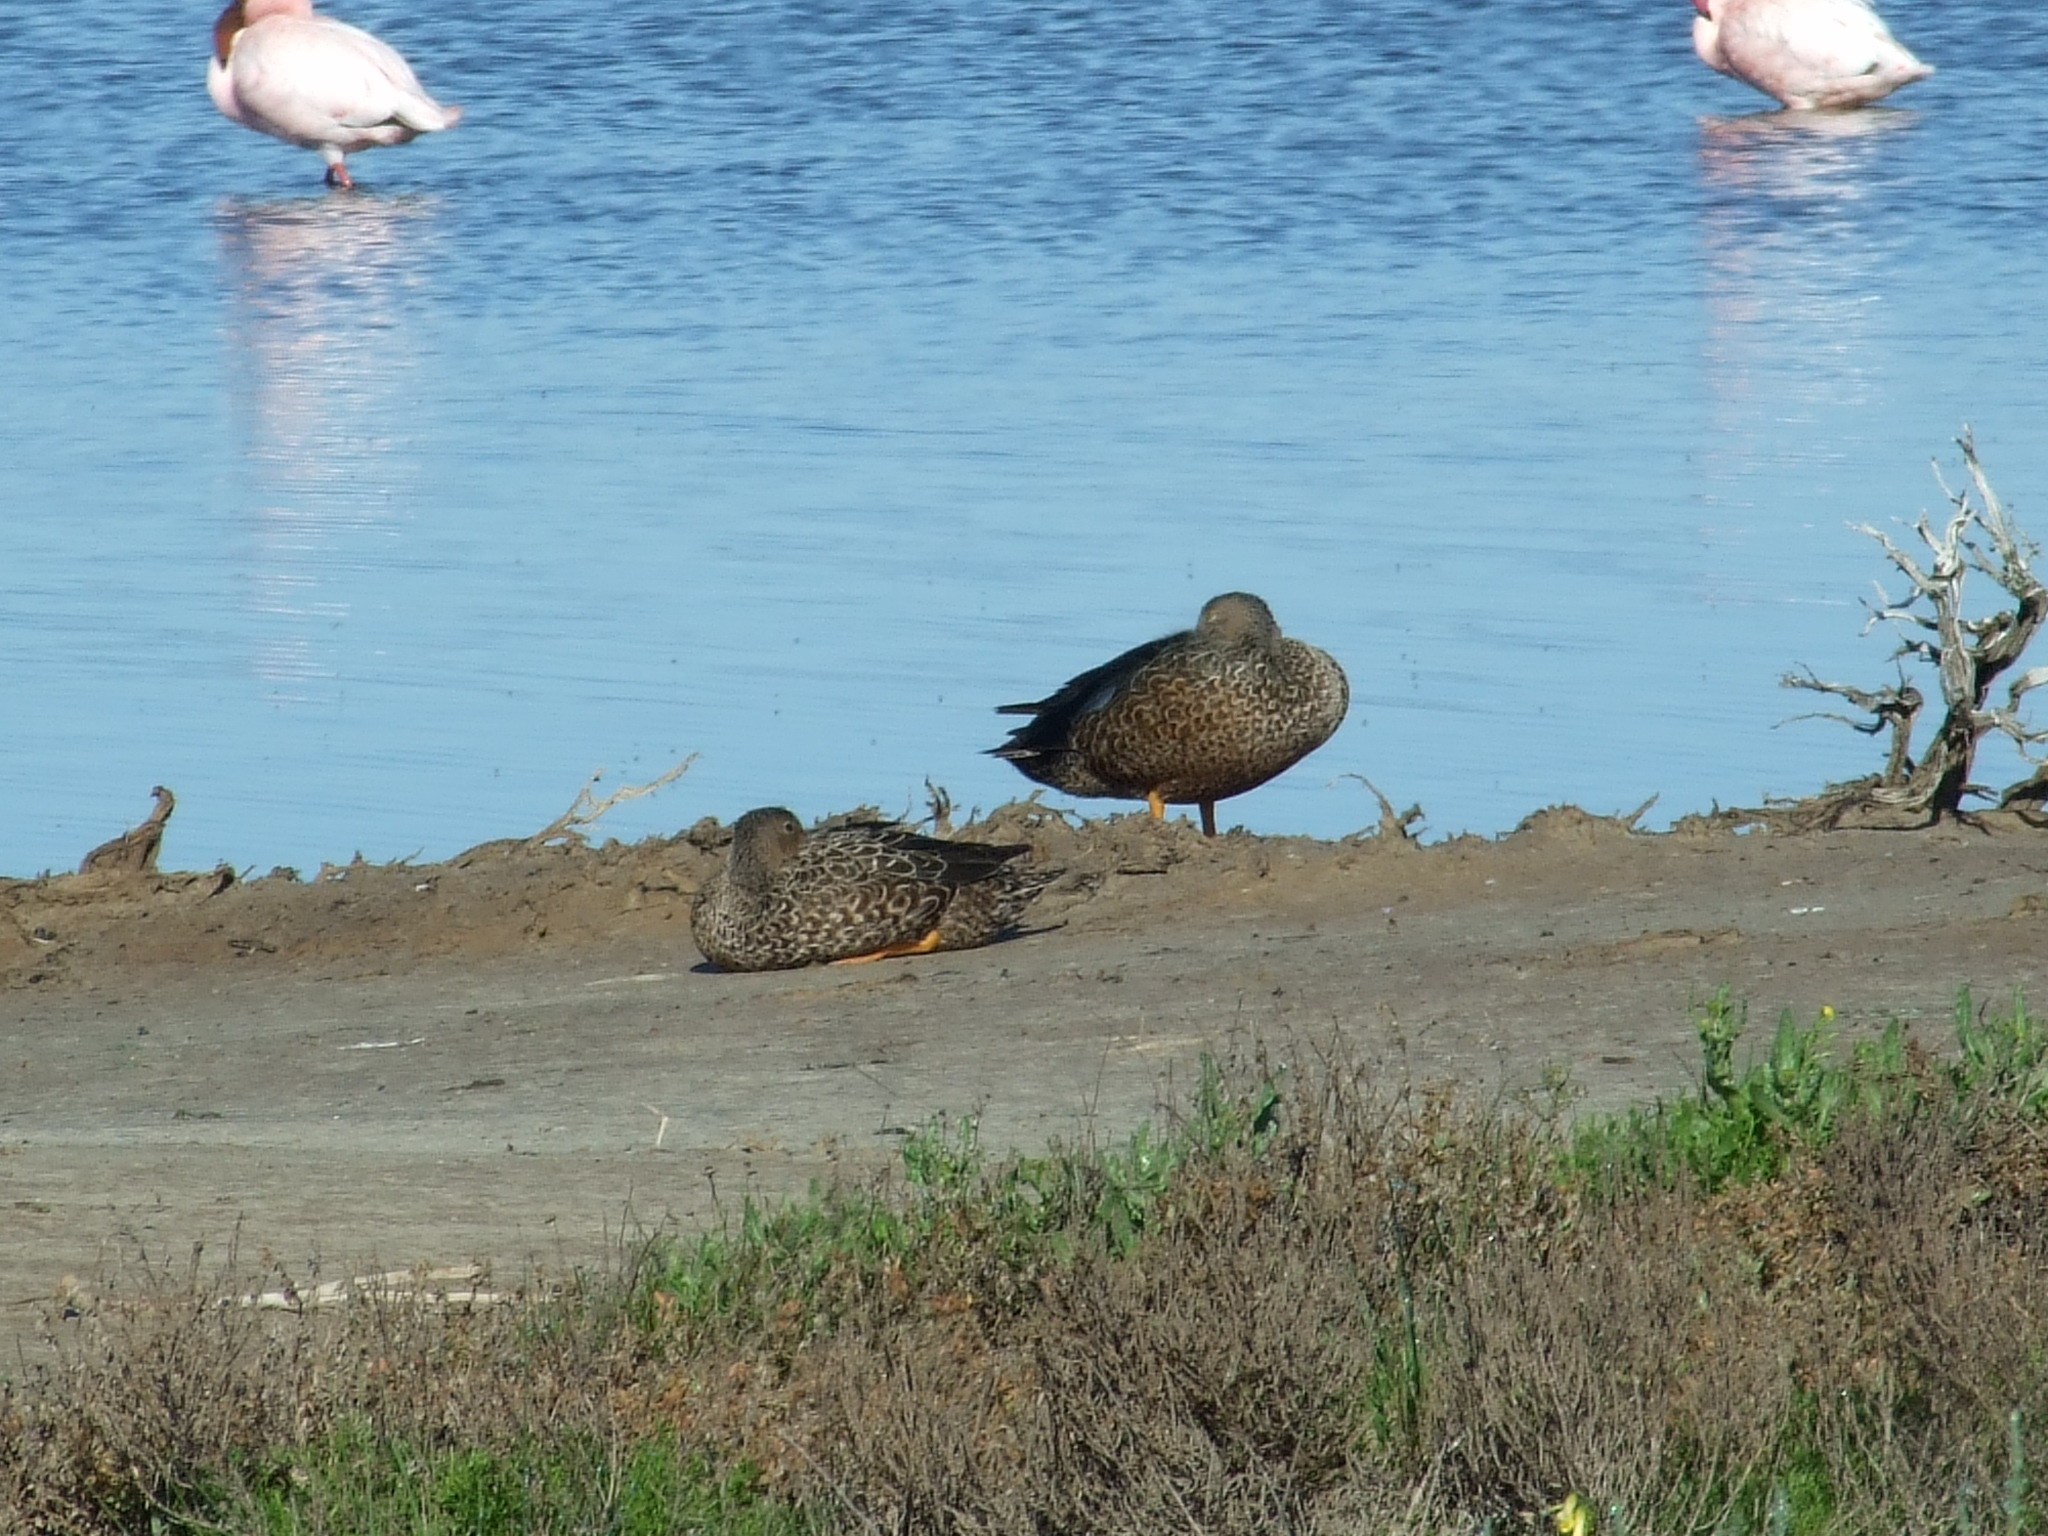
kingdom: Animalia
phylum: Chordata
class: Aves
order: Anseriformes
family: Anatidae
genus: Spatula
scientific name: Spatula smithii
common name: Cape shoveler
